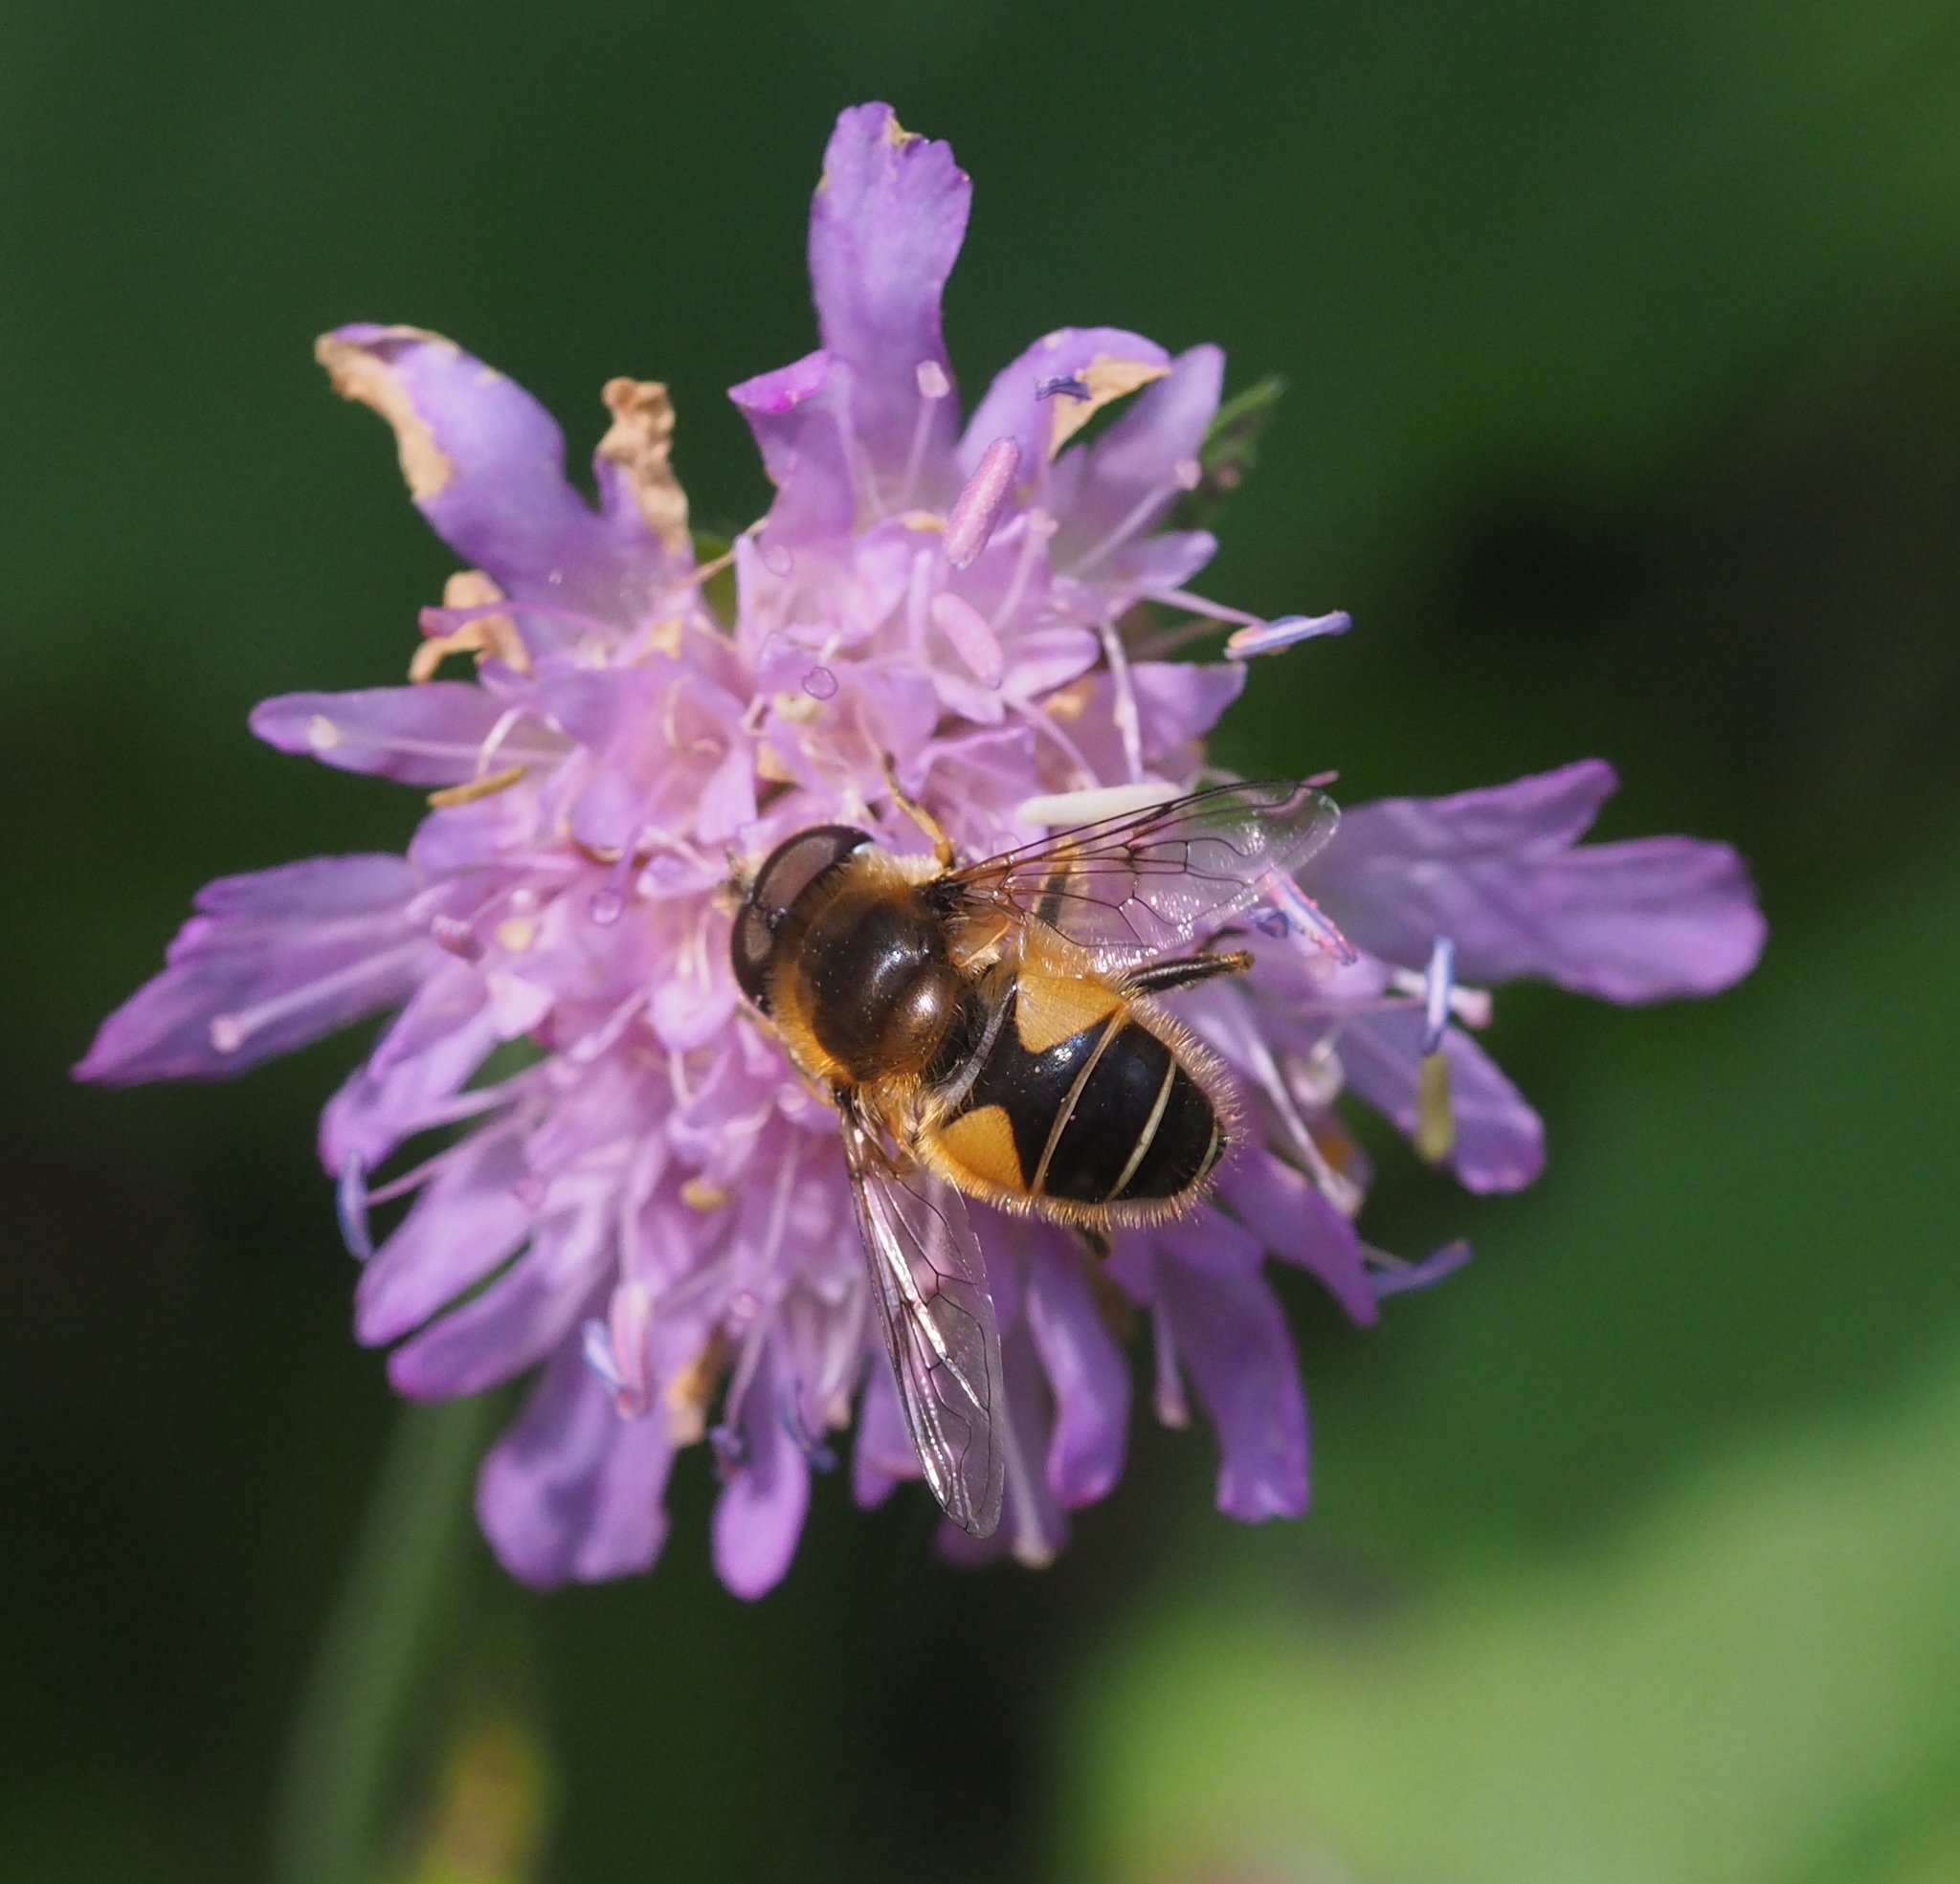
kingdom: Animalia
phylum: Arthropoda
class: Insecta
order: Diptera
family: Syrphidae
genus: Eristalis
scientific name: Eristalis jugorum
